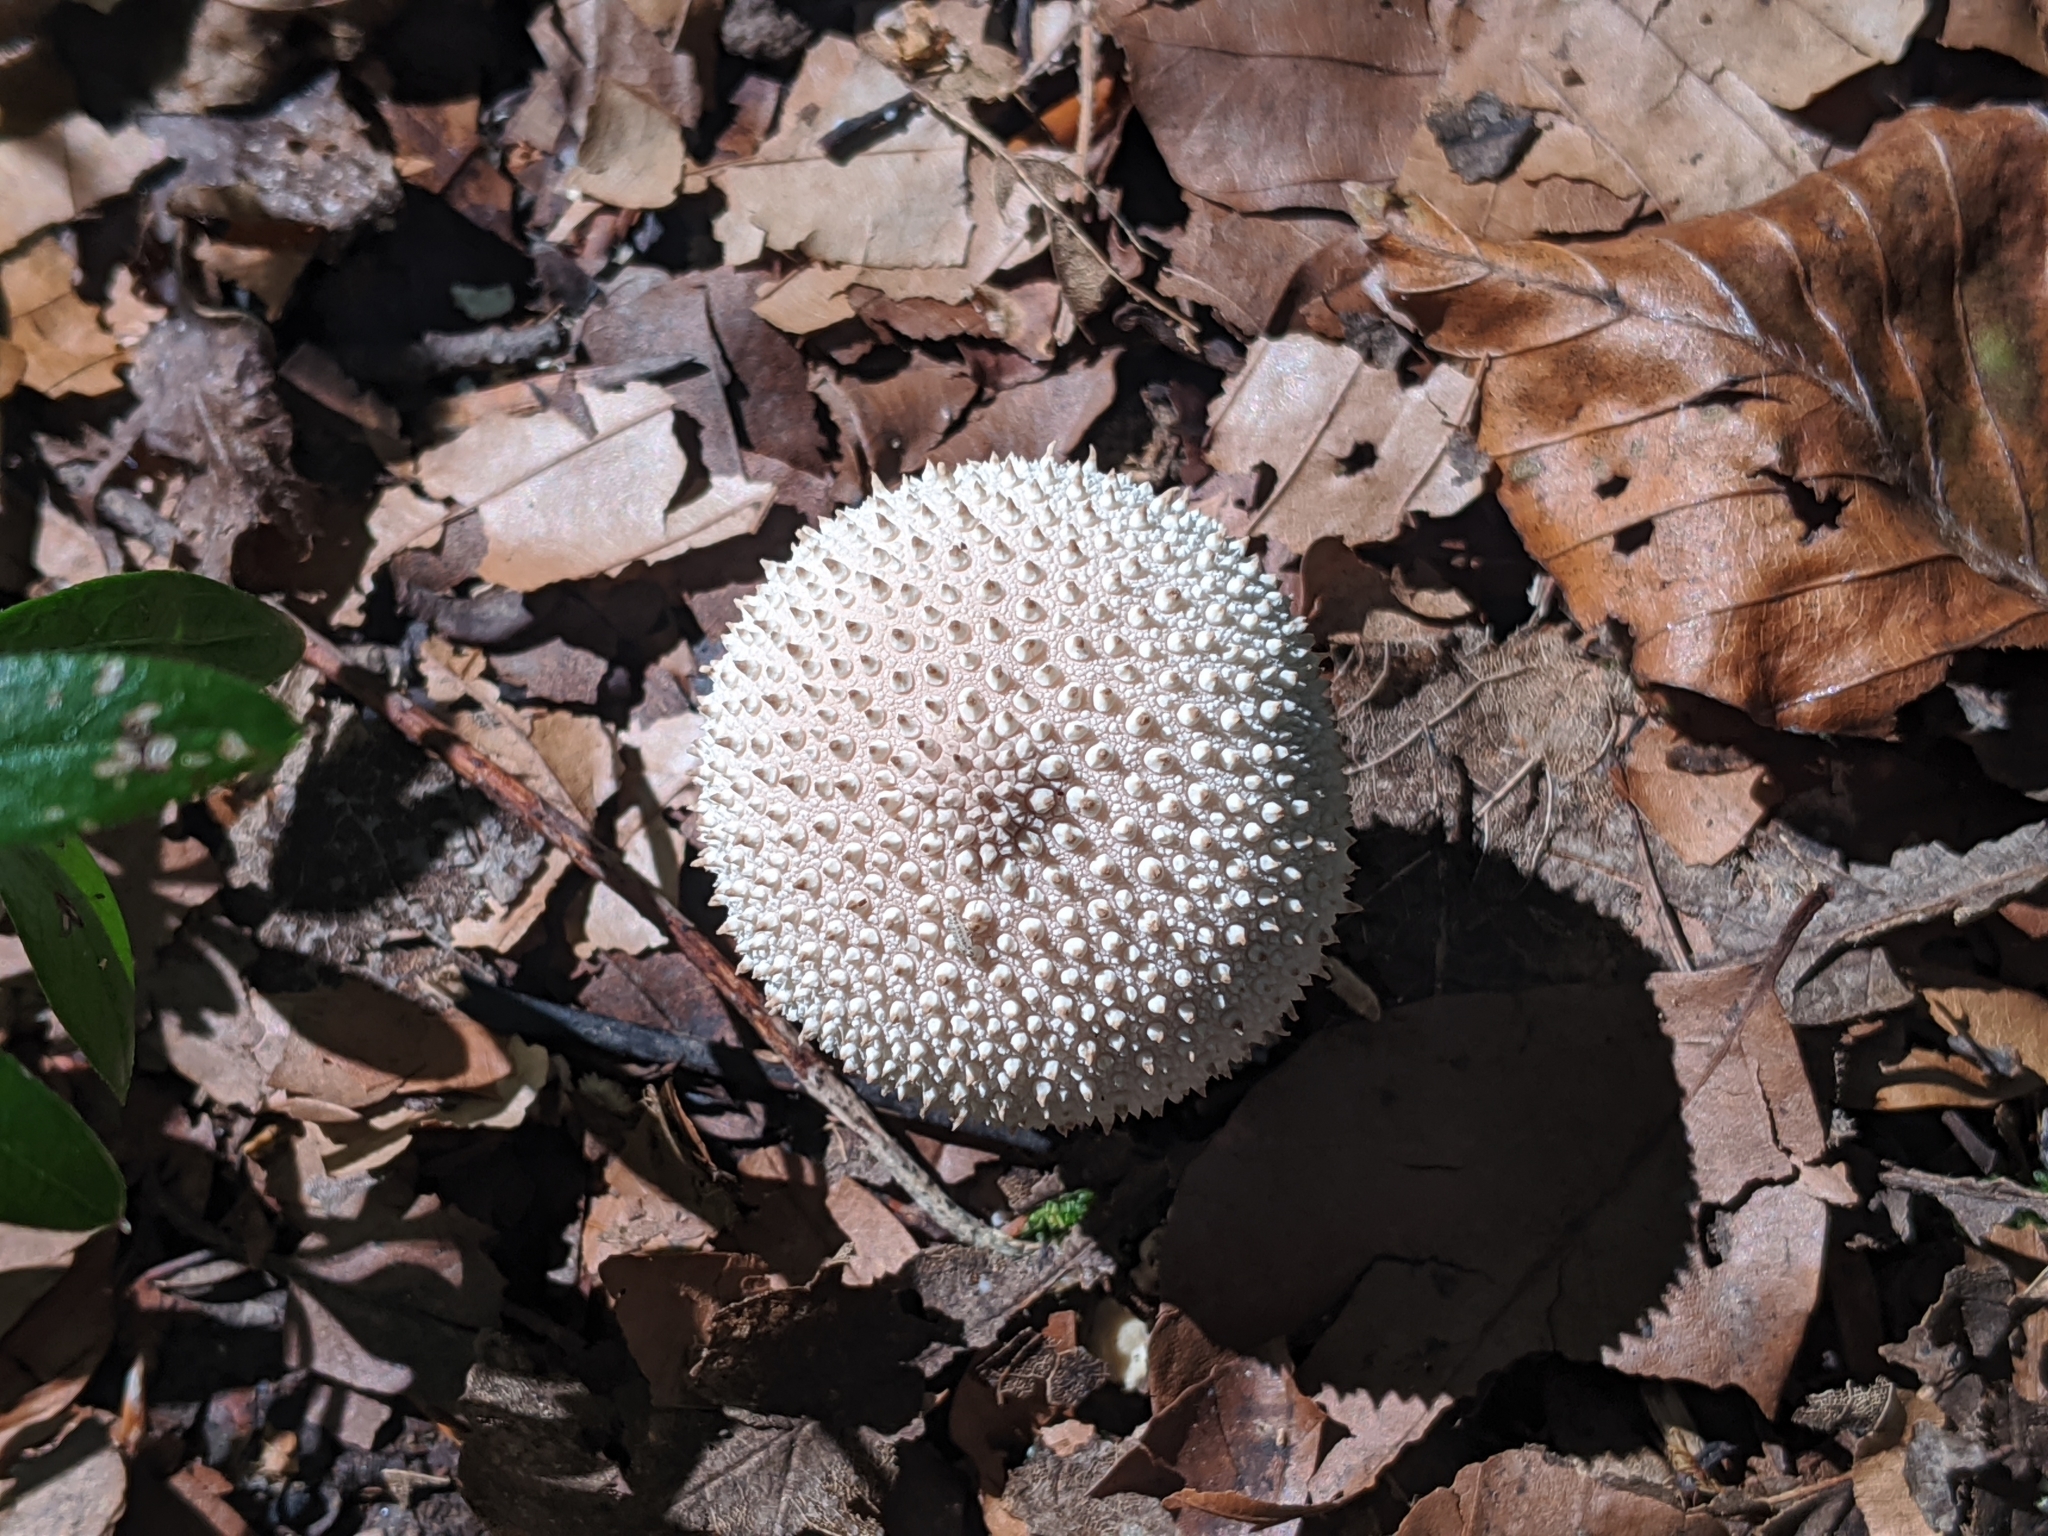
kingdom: Fungi
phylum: Basidiomycota
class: Agaricomycetes
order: Agaricales
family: Lycoperdaceae
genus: Lycoperdon
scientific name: Lycoperdon perlatum
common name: Common puffball
